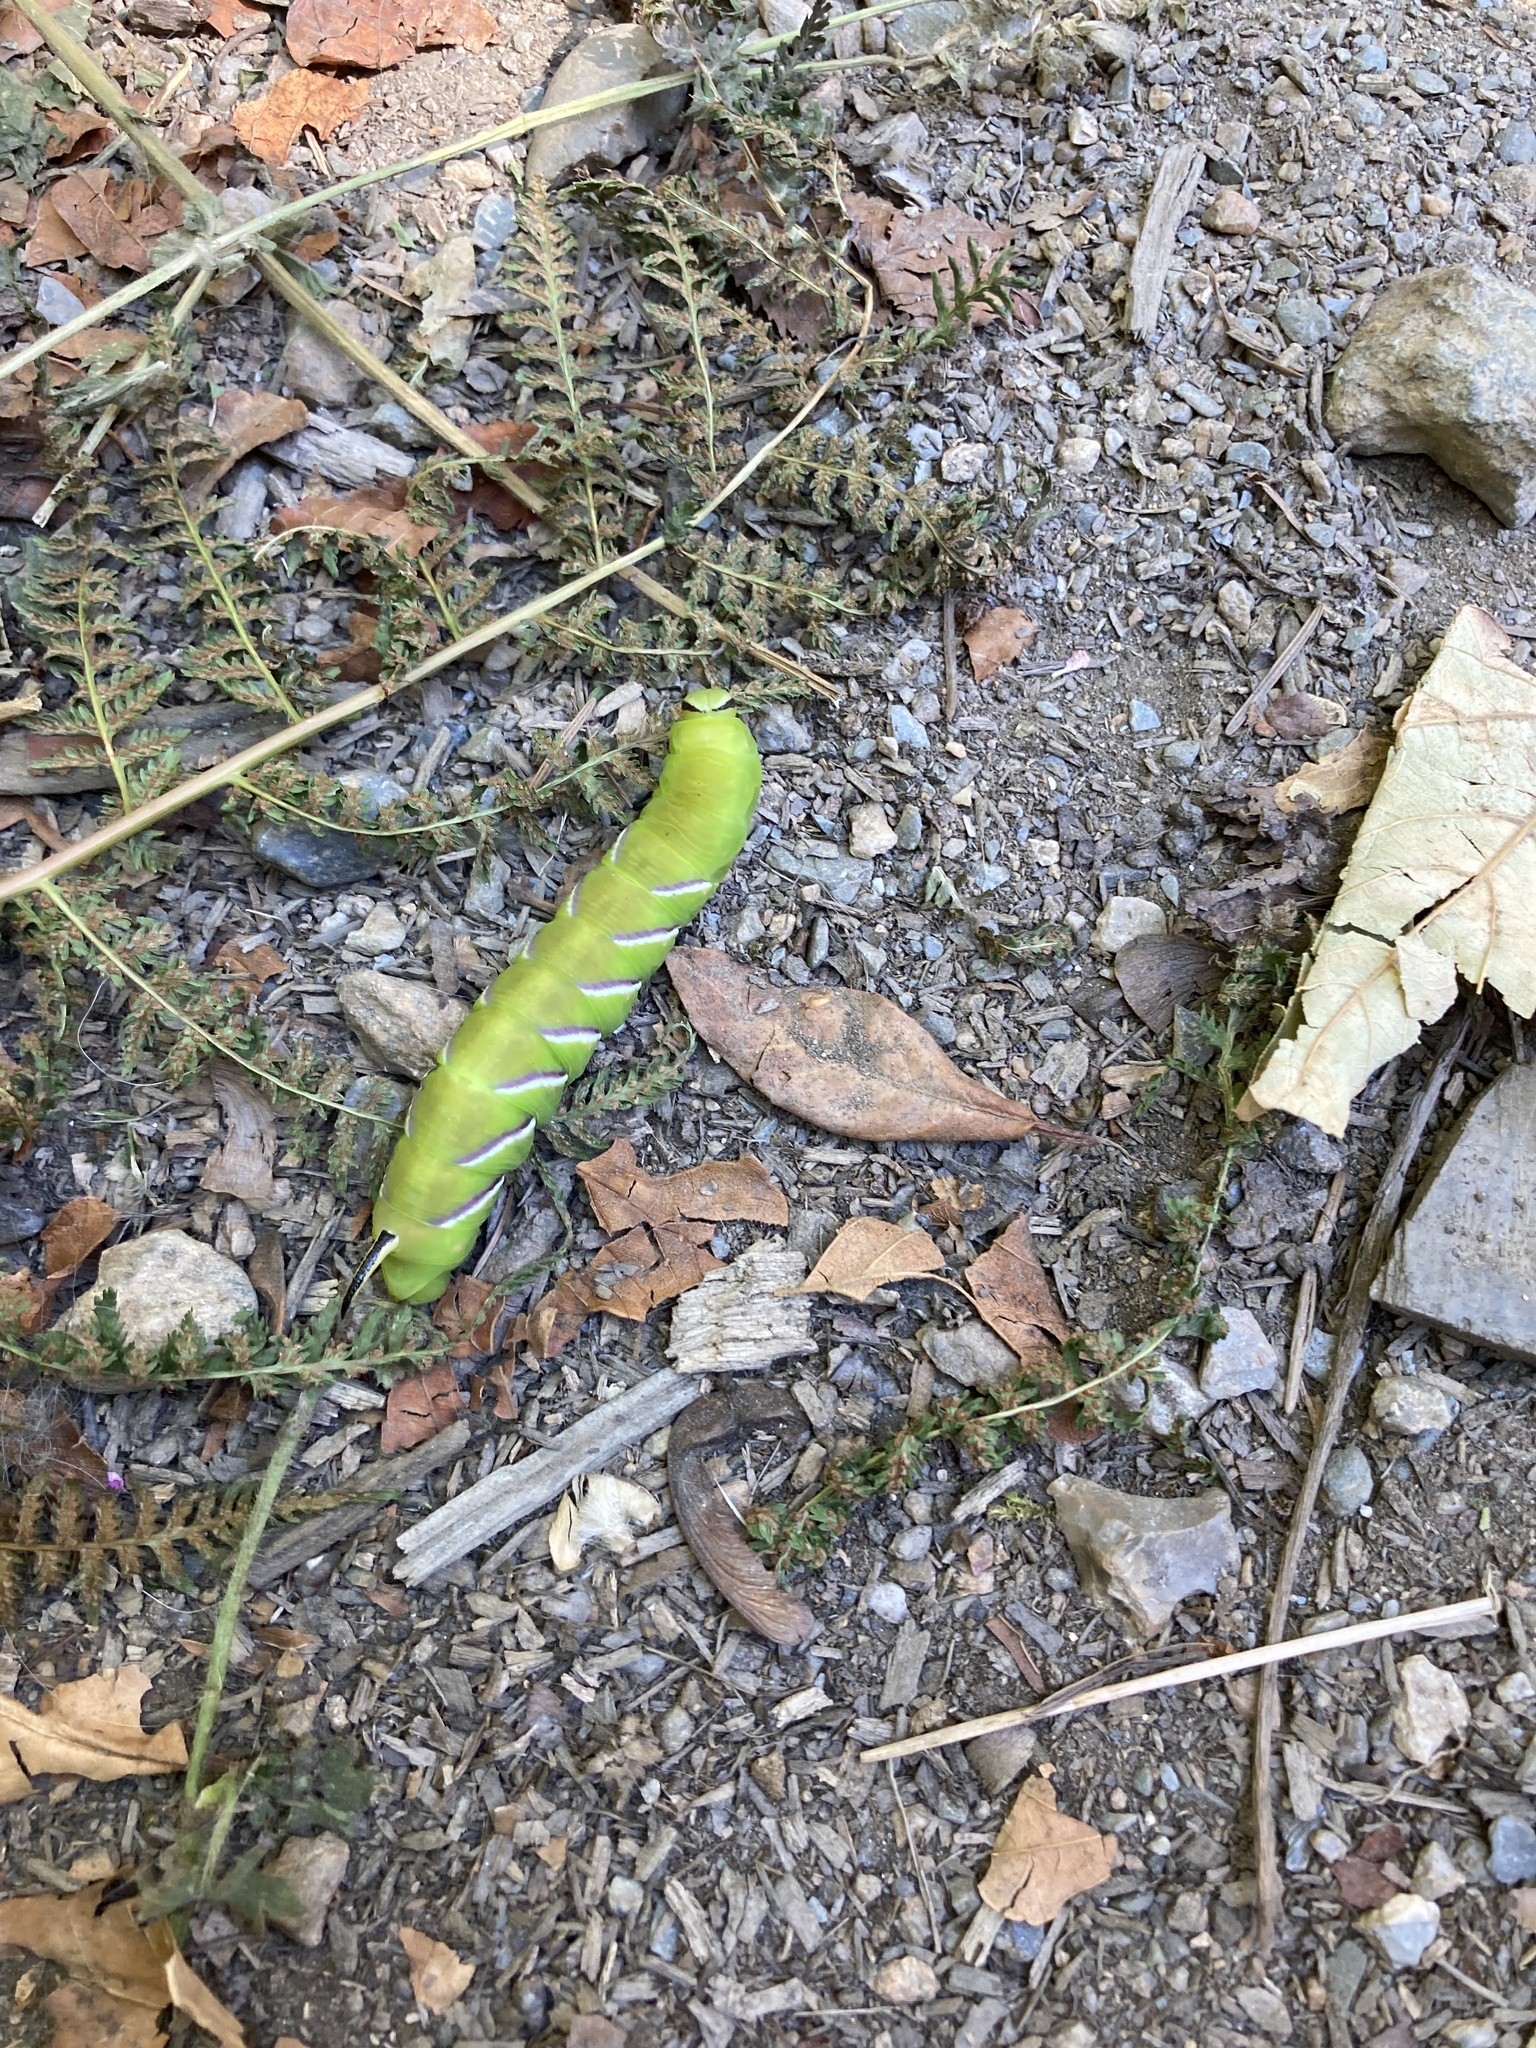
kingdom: Animalia
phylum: Arthropoda
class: Insecta
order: Lepidoptera
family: Sphingidae
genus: Sphinx
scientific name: Sphinx ligustri
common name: Privet hawk-moth
